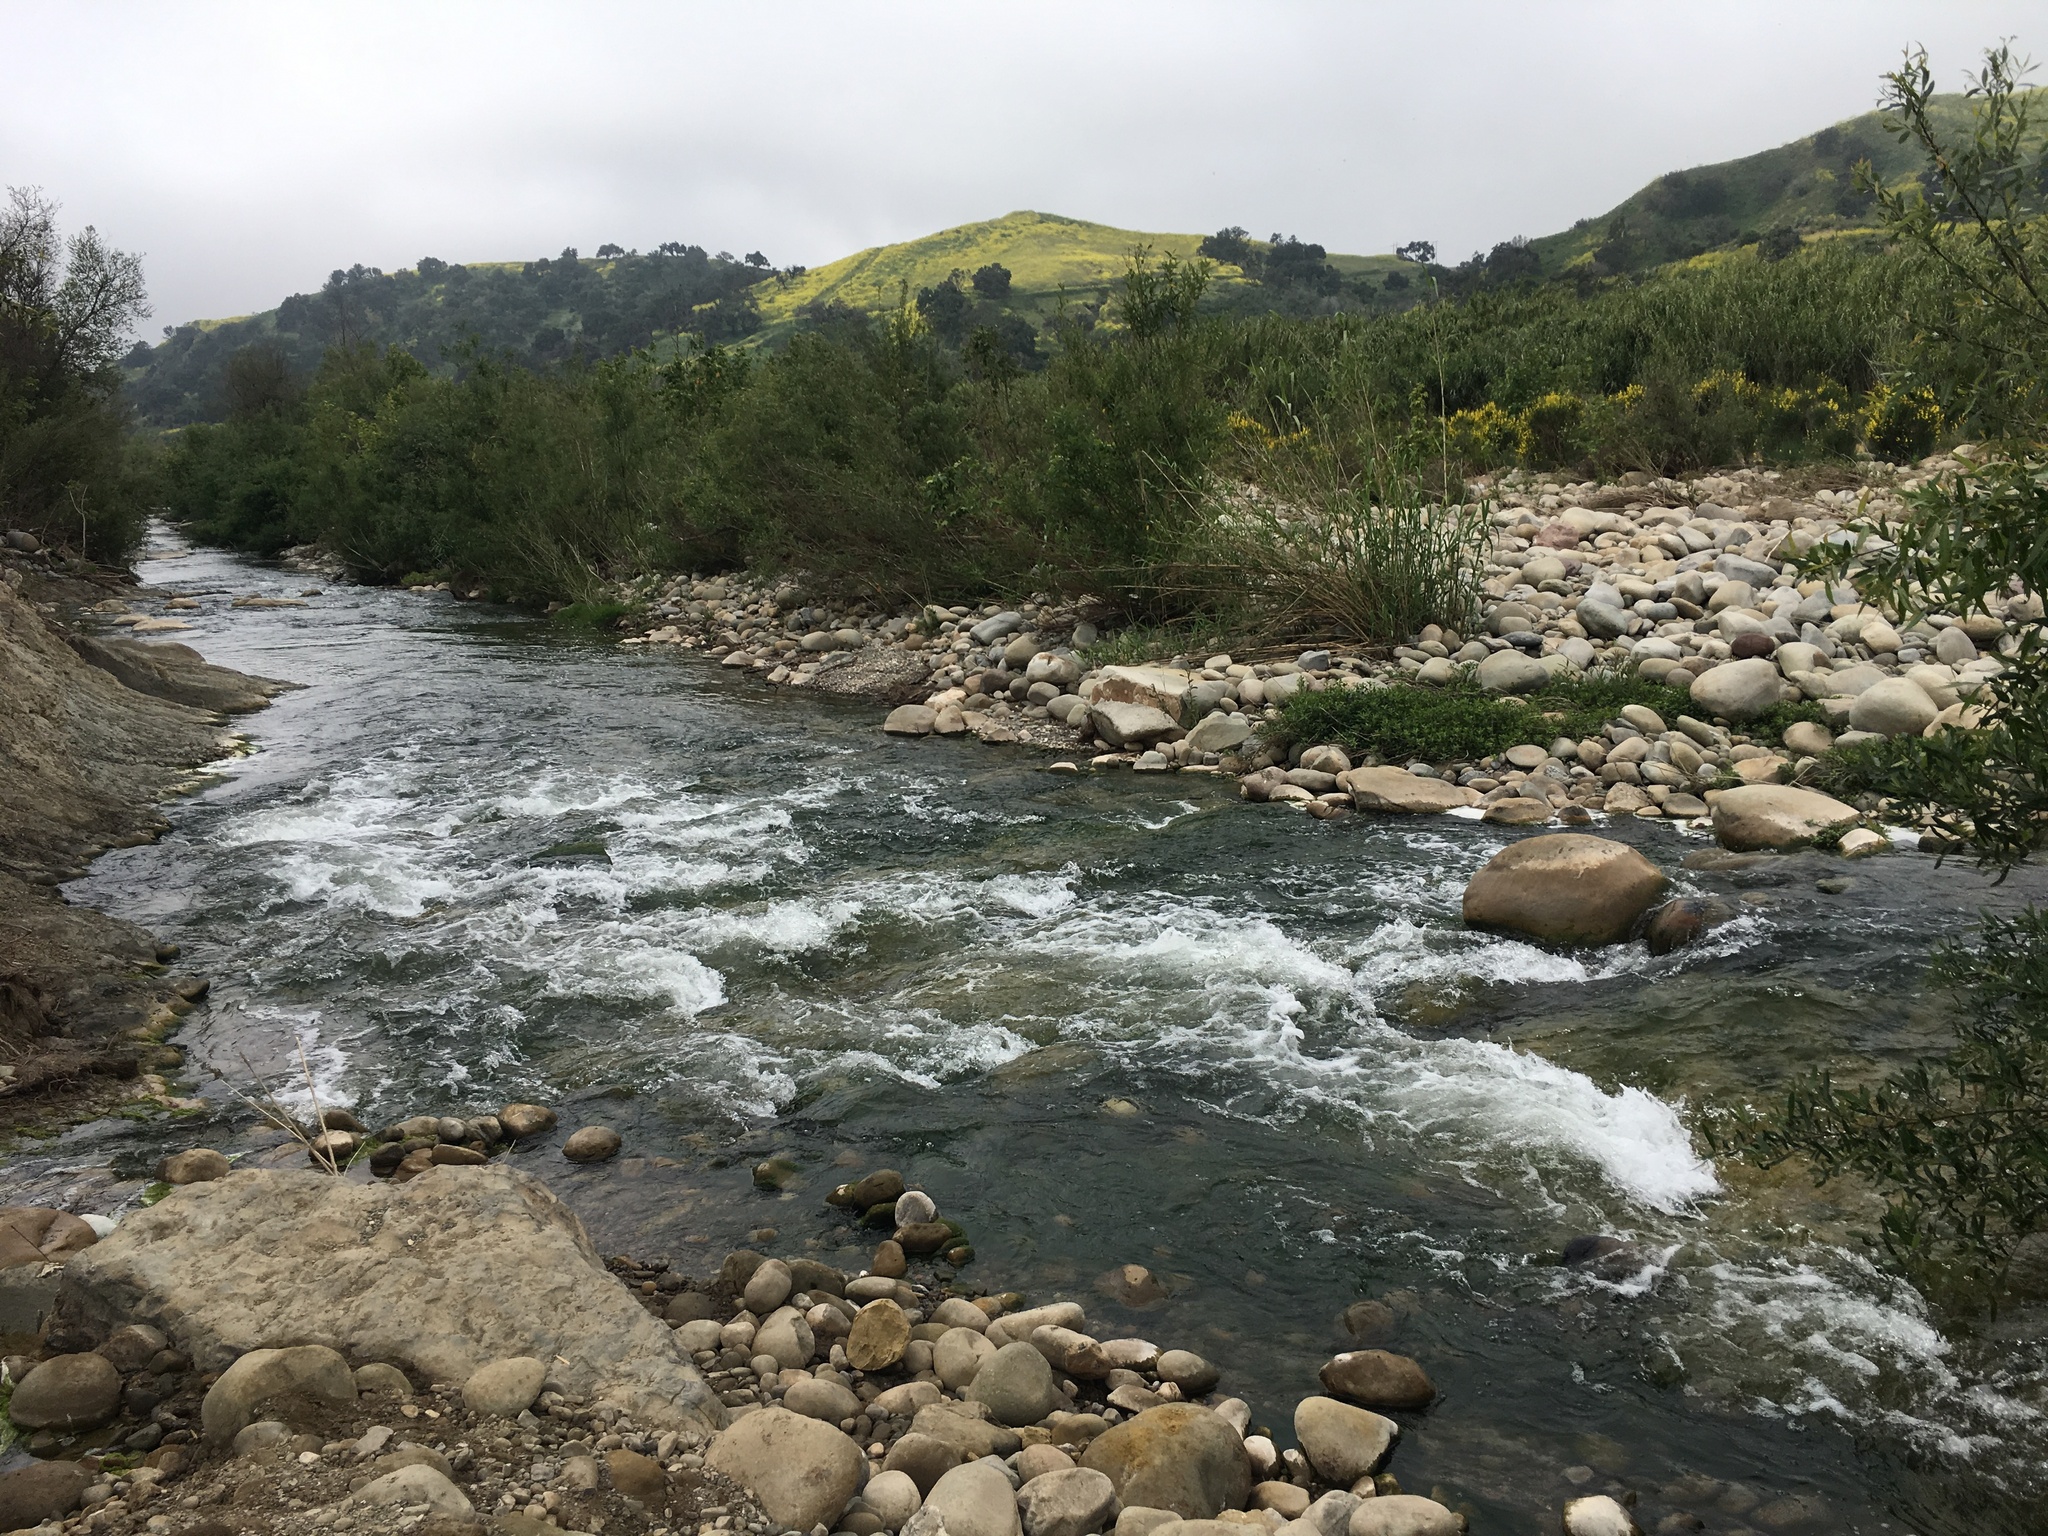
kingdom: Plantae
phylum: Tracheophyta
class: Liliopsida
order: Poales
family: Poaceae
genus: Arundo
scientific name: Arundo donax
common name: Giant reed
